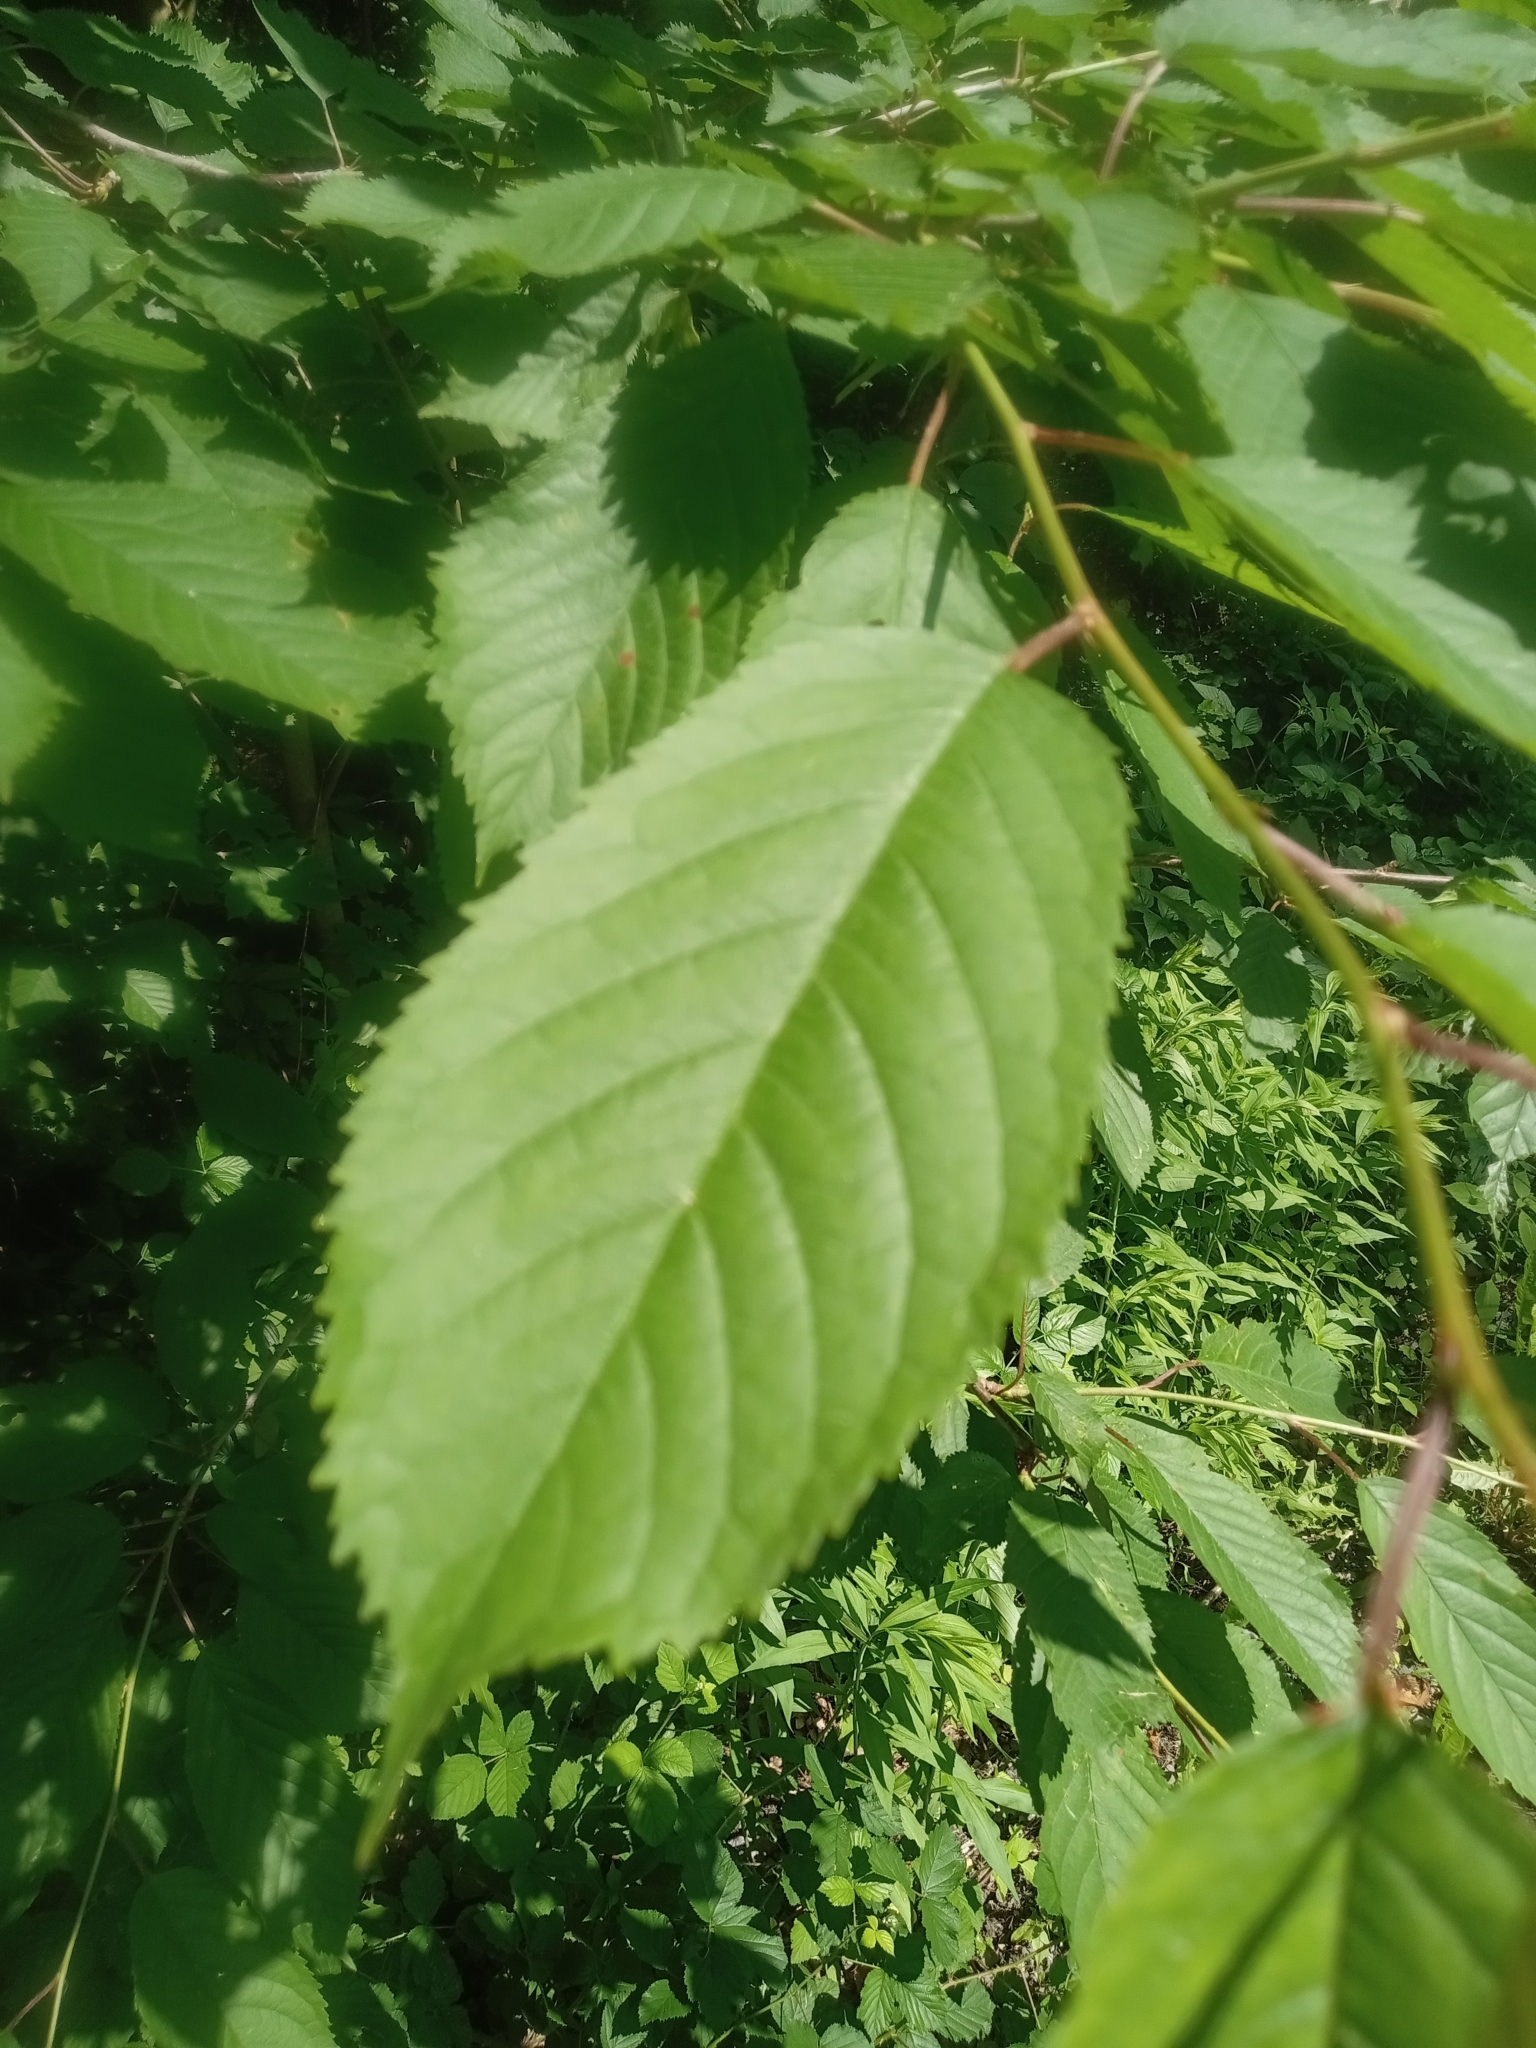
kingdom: Plantae
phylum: Tracheophyta
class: Magnoliopsida
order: Rosales
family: Rosaceae
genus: Prunus
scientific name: Prunus avium
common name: Sweet cherry
